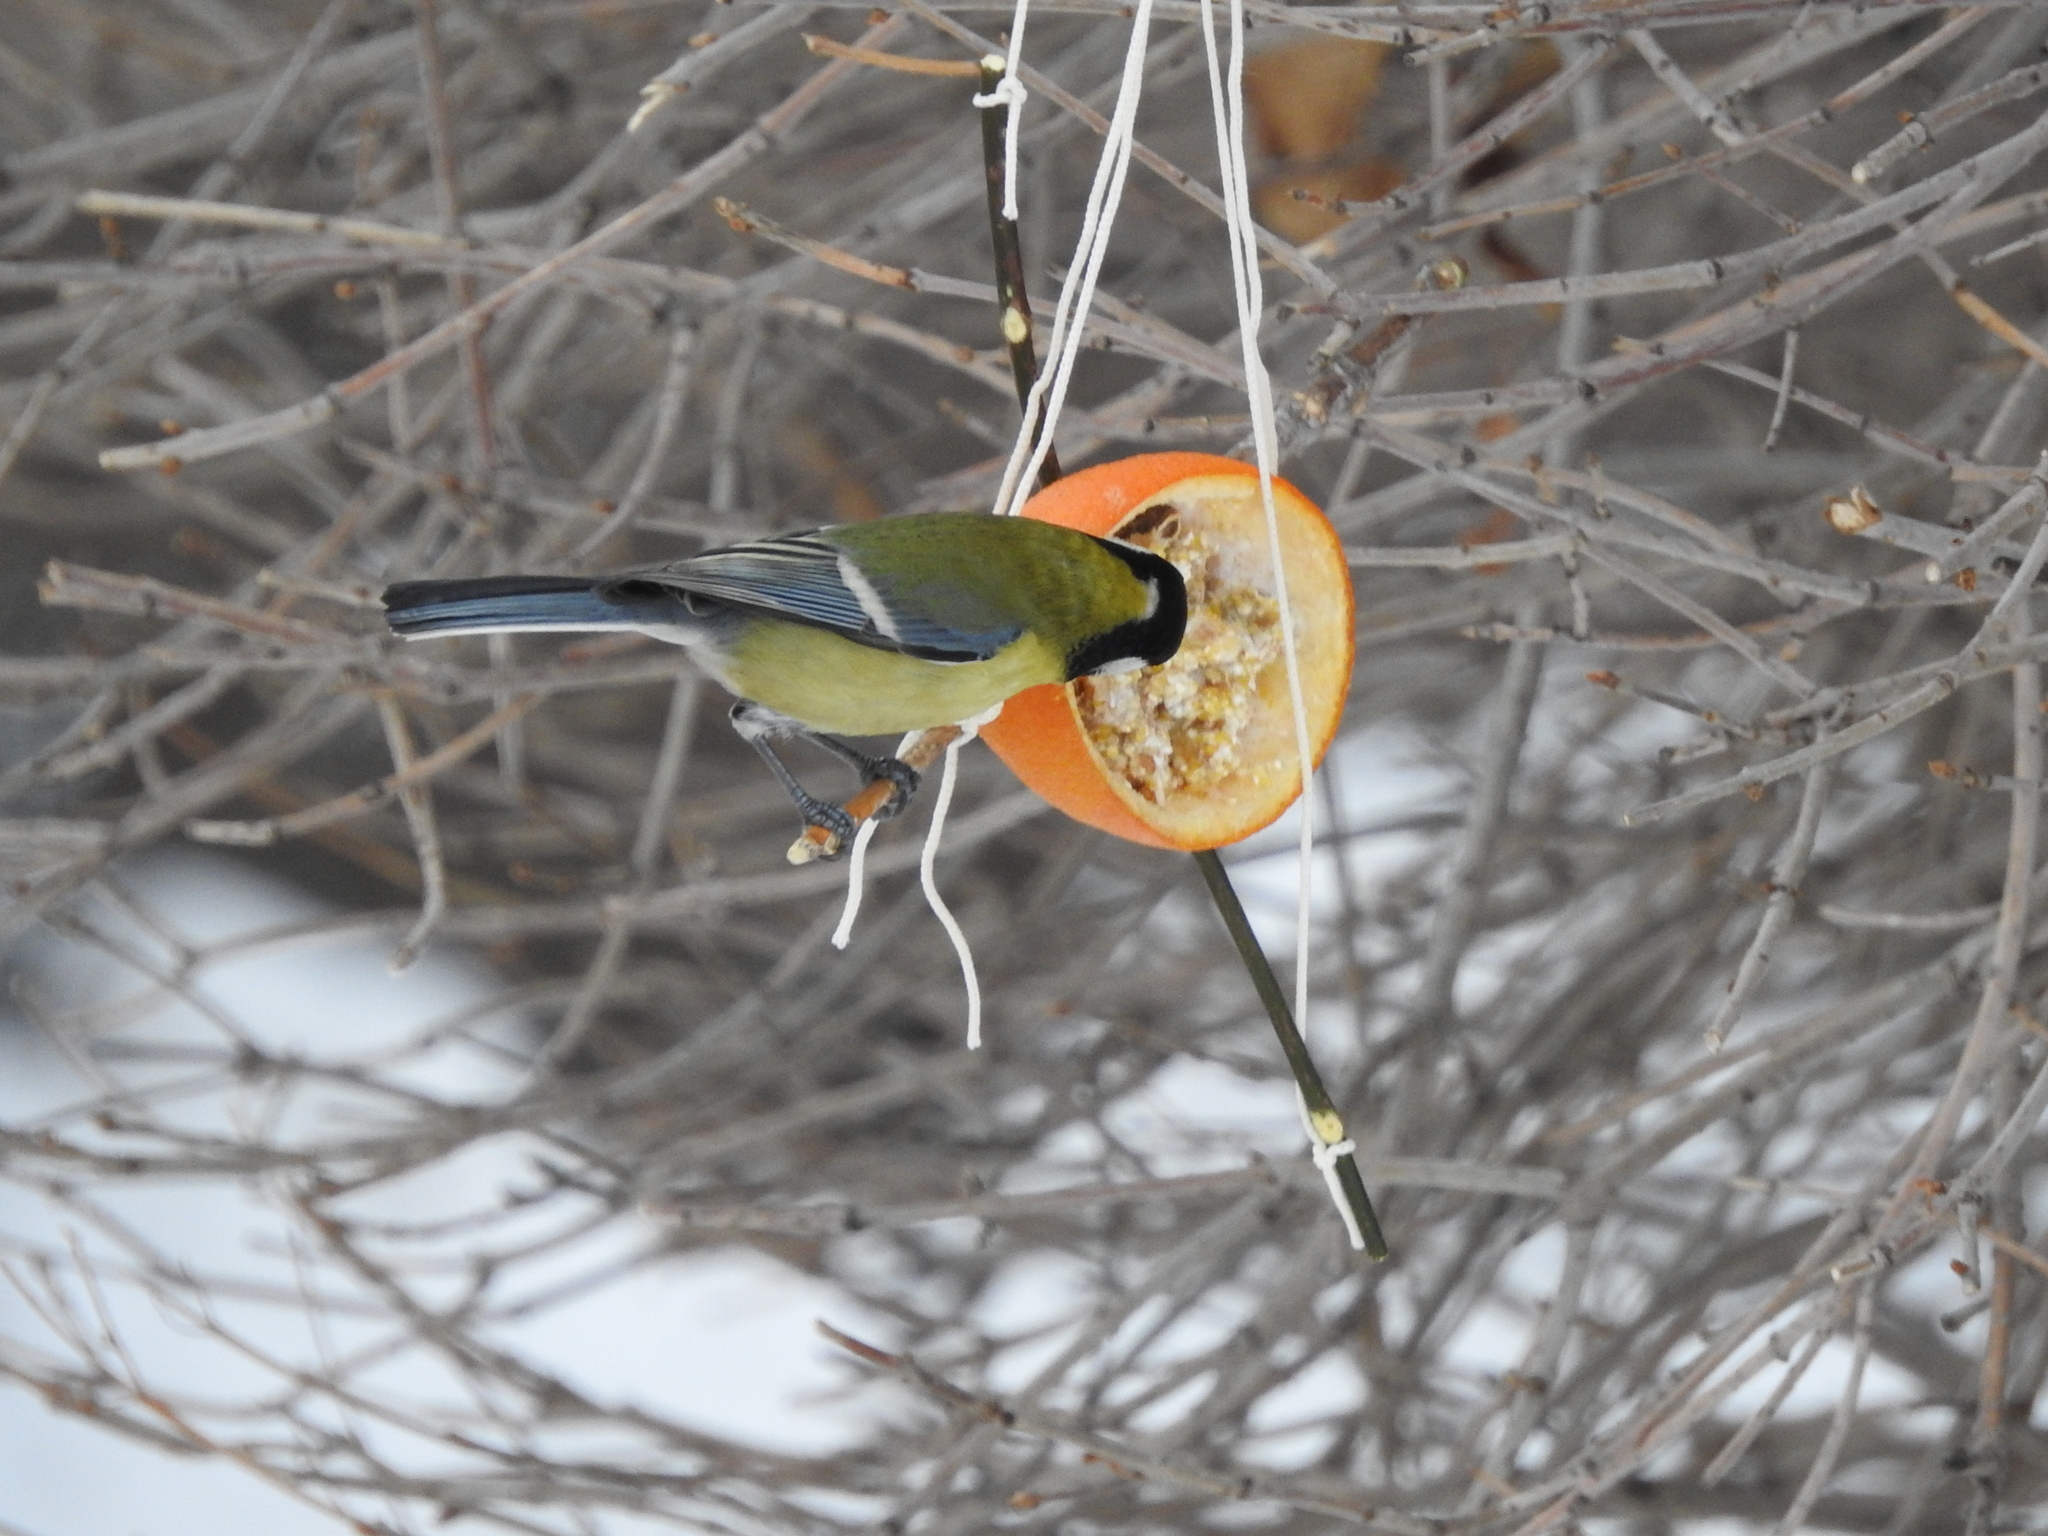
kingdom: Animalia
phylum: Chordata
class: Aves
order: Passeriformes
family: Paridae
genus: Parus
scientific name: Parus major
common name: Great tit
